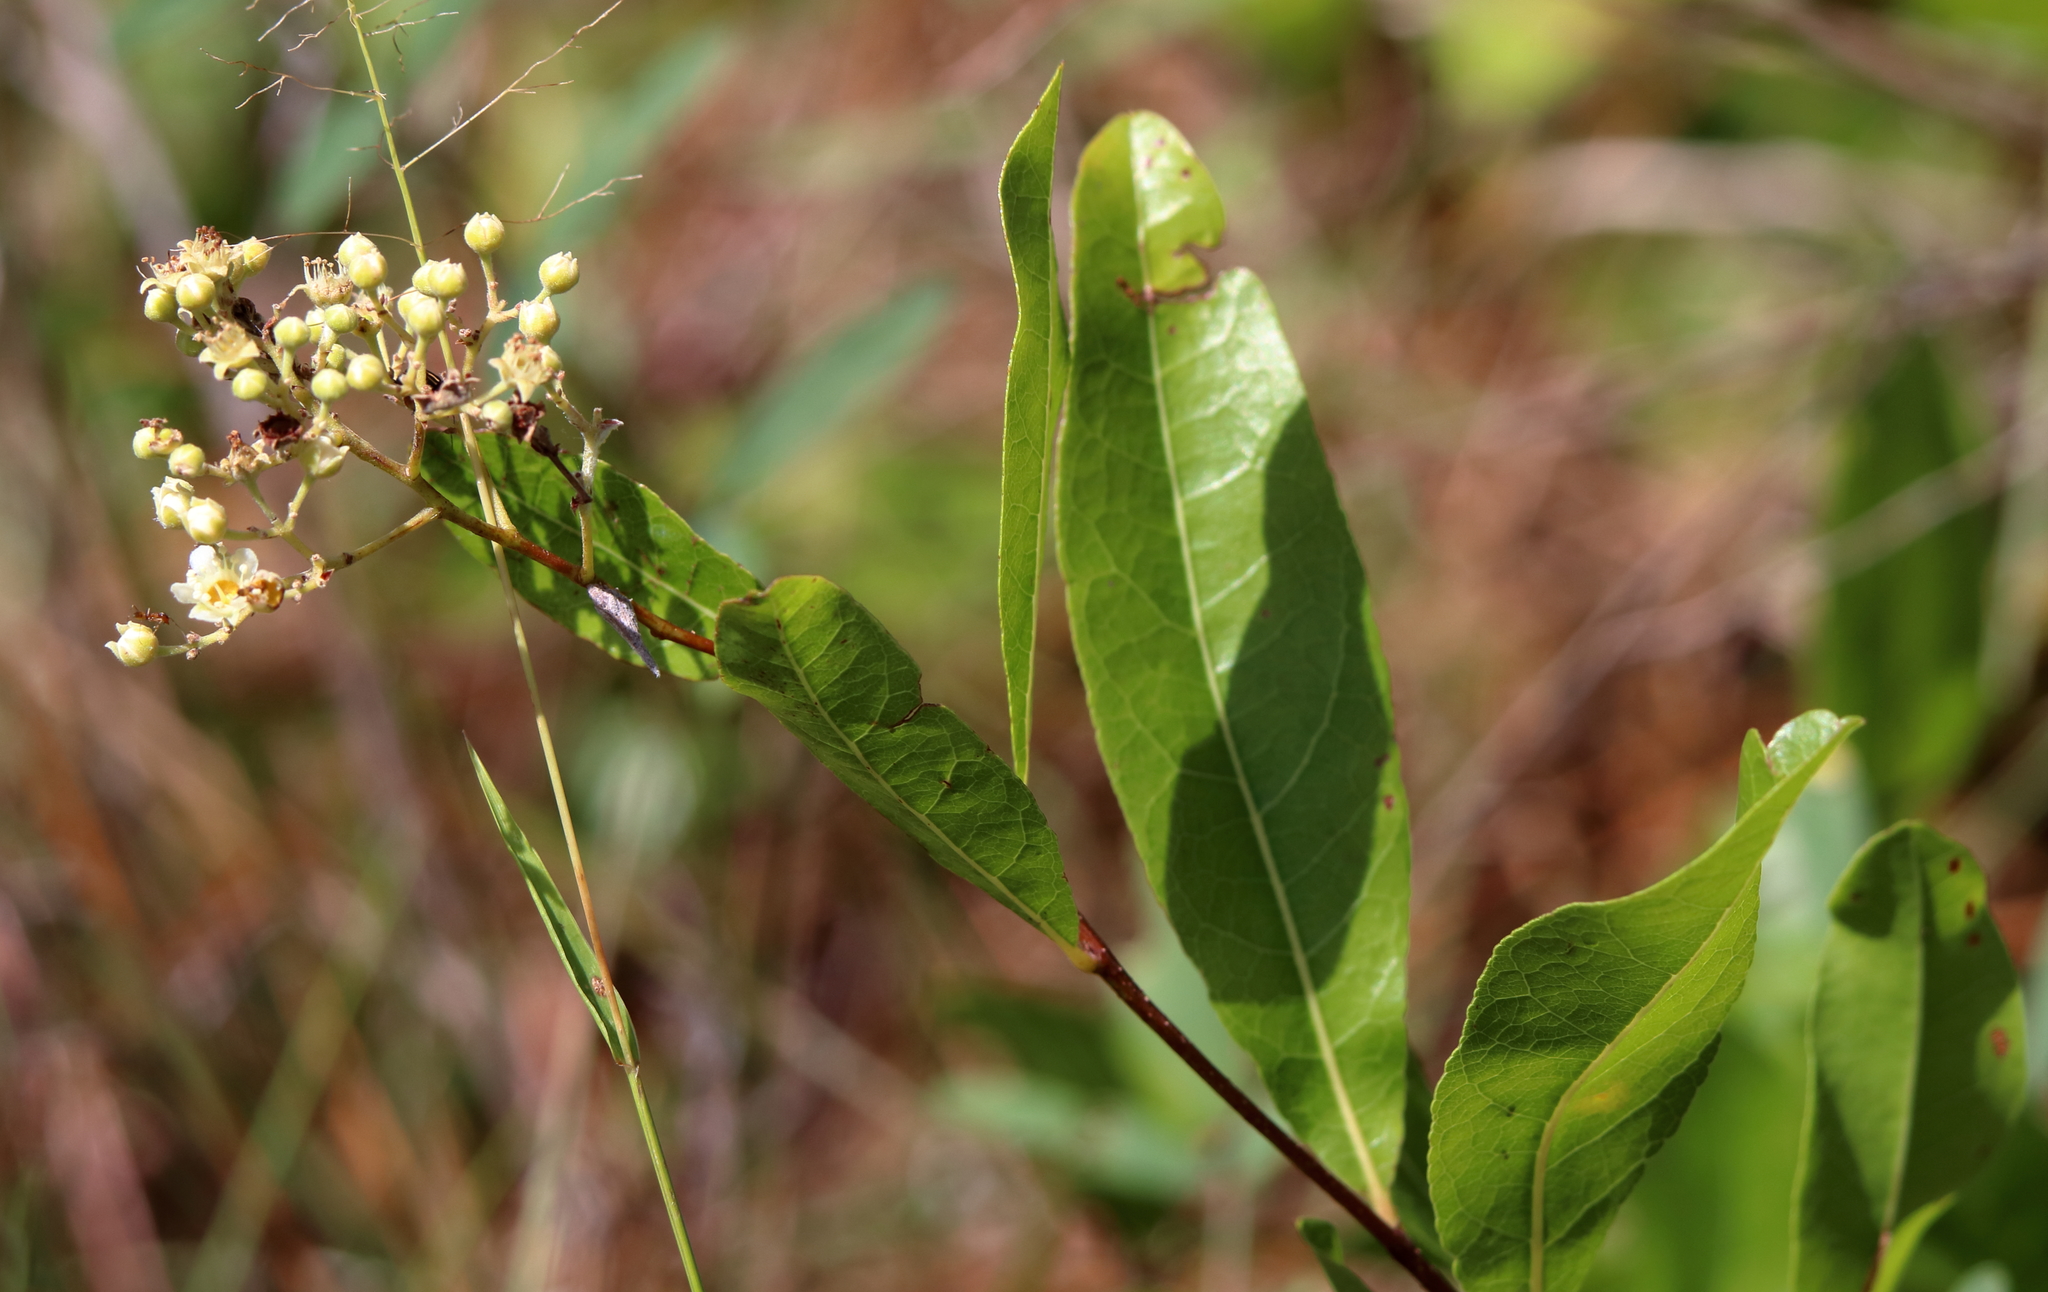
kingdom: Plantae
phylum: Tracheophyta
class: Magnoliopsida
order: Malpighiales
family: Chrysobalanaceae
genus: Geobalanus
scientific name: Geobalanus oblongifolius
